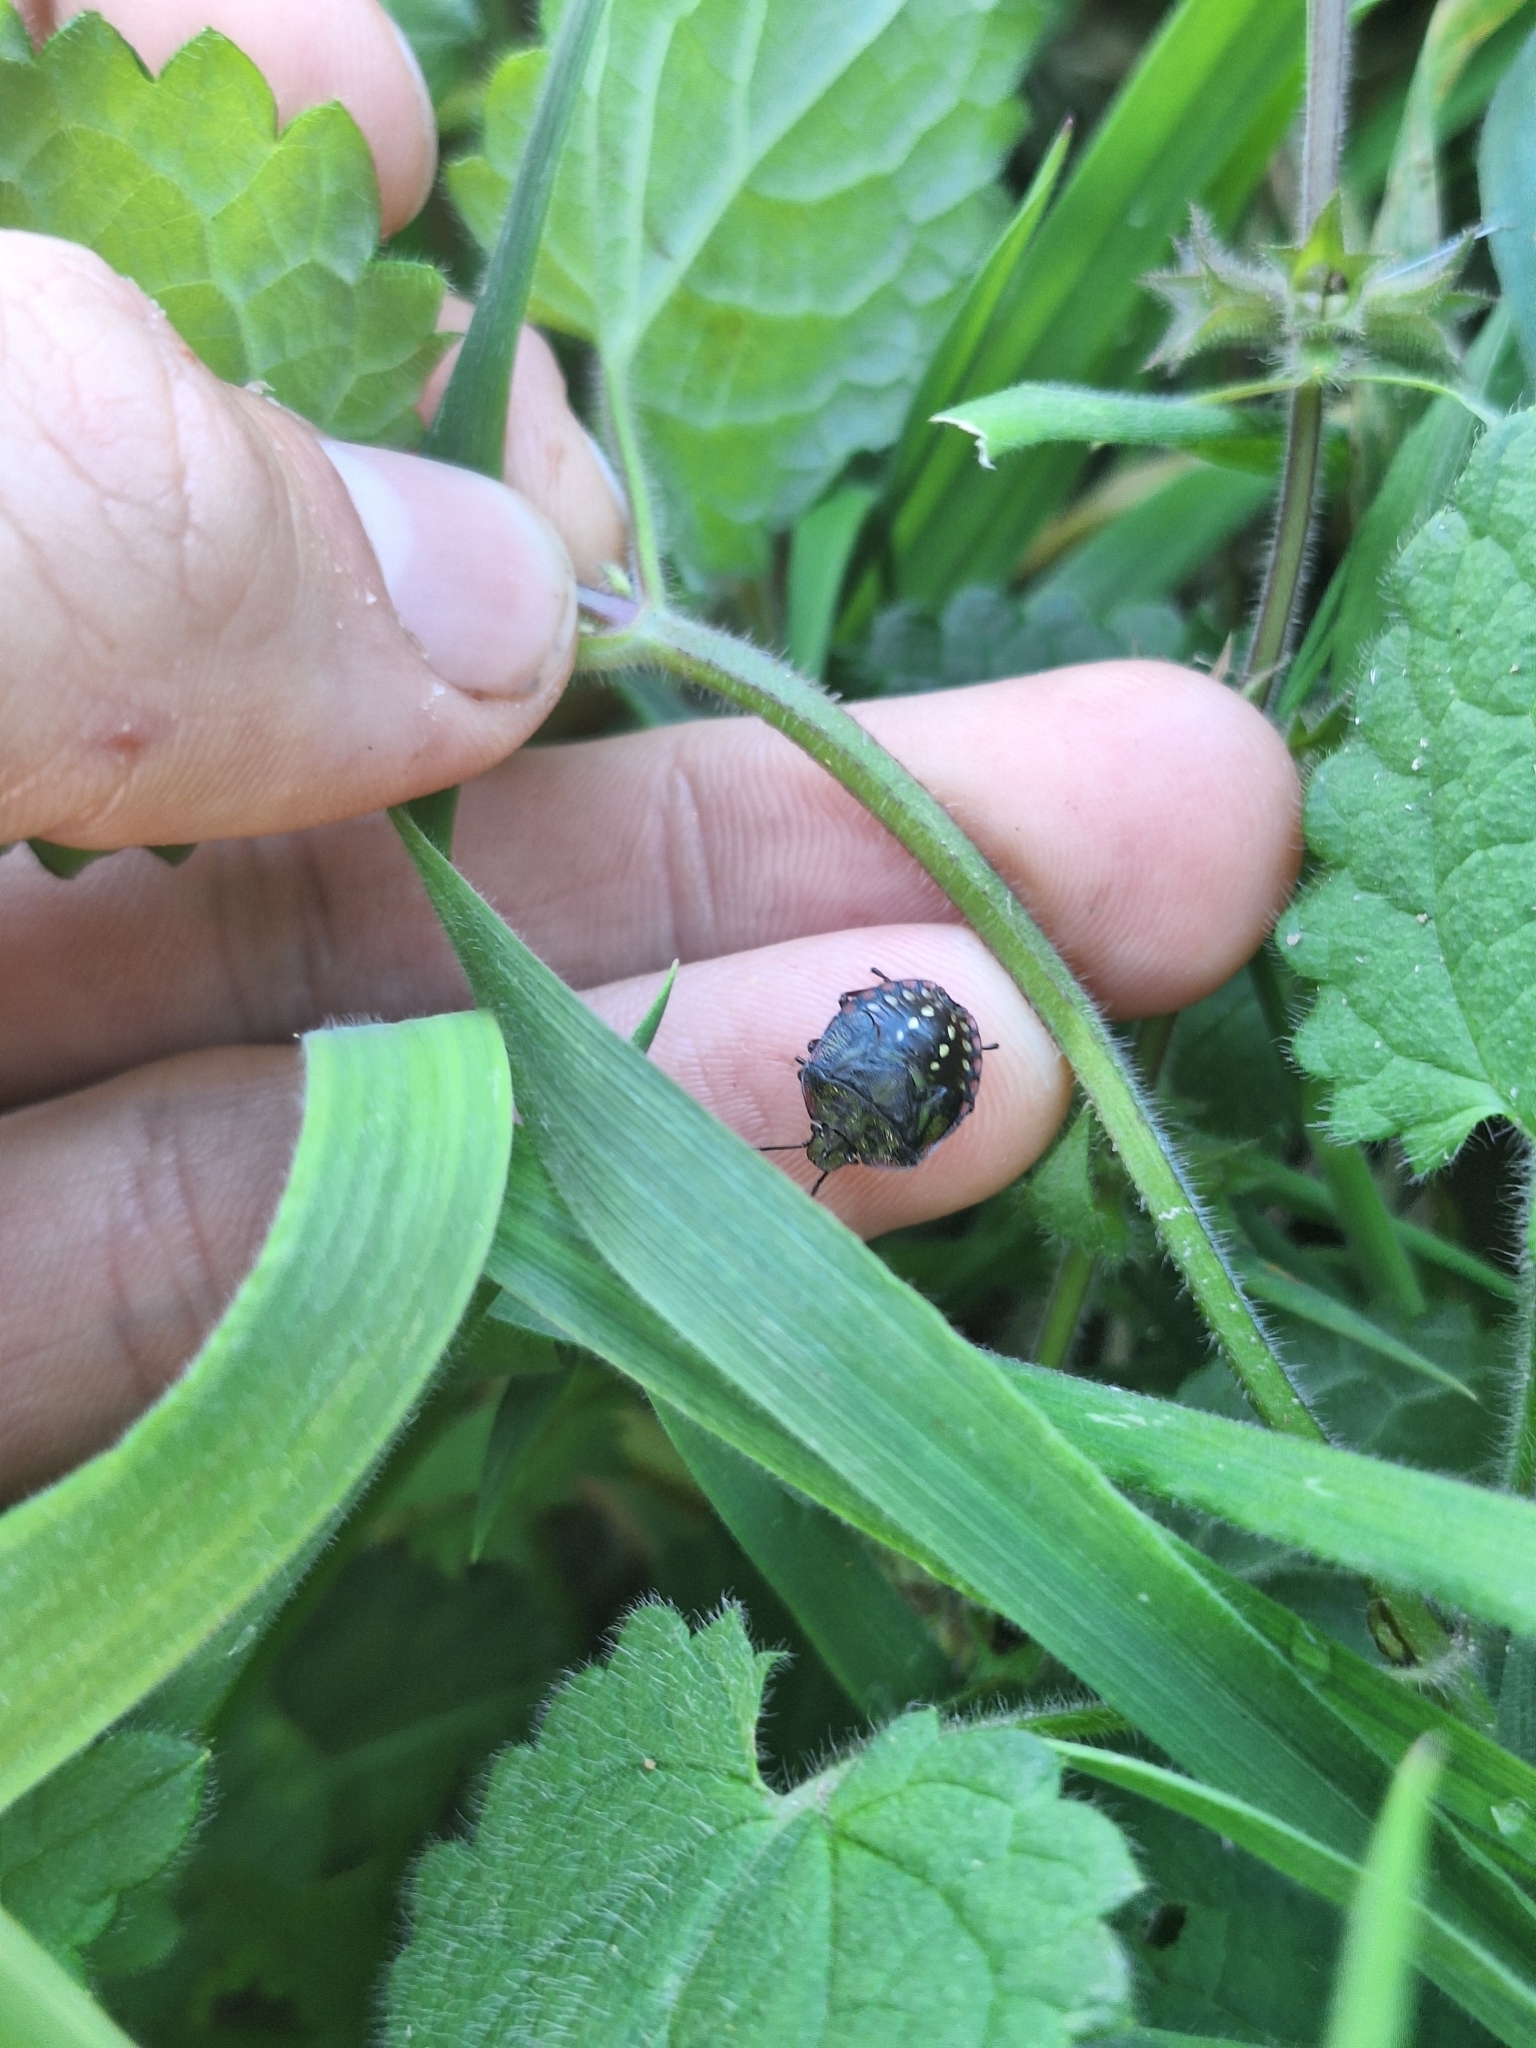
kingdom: Animalia
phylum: Arthropoda
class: Insecta
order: Hemiptera
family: Pentatomidae
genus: Nezara
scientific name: Nezara viridula
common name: Southern green stink bug
